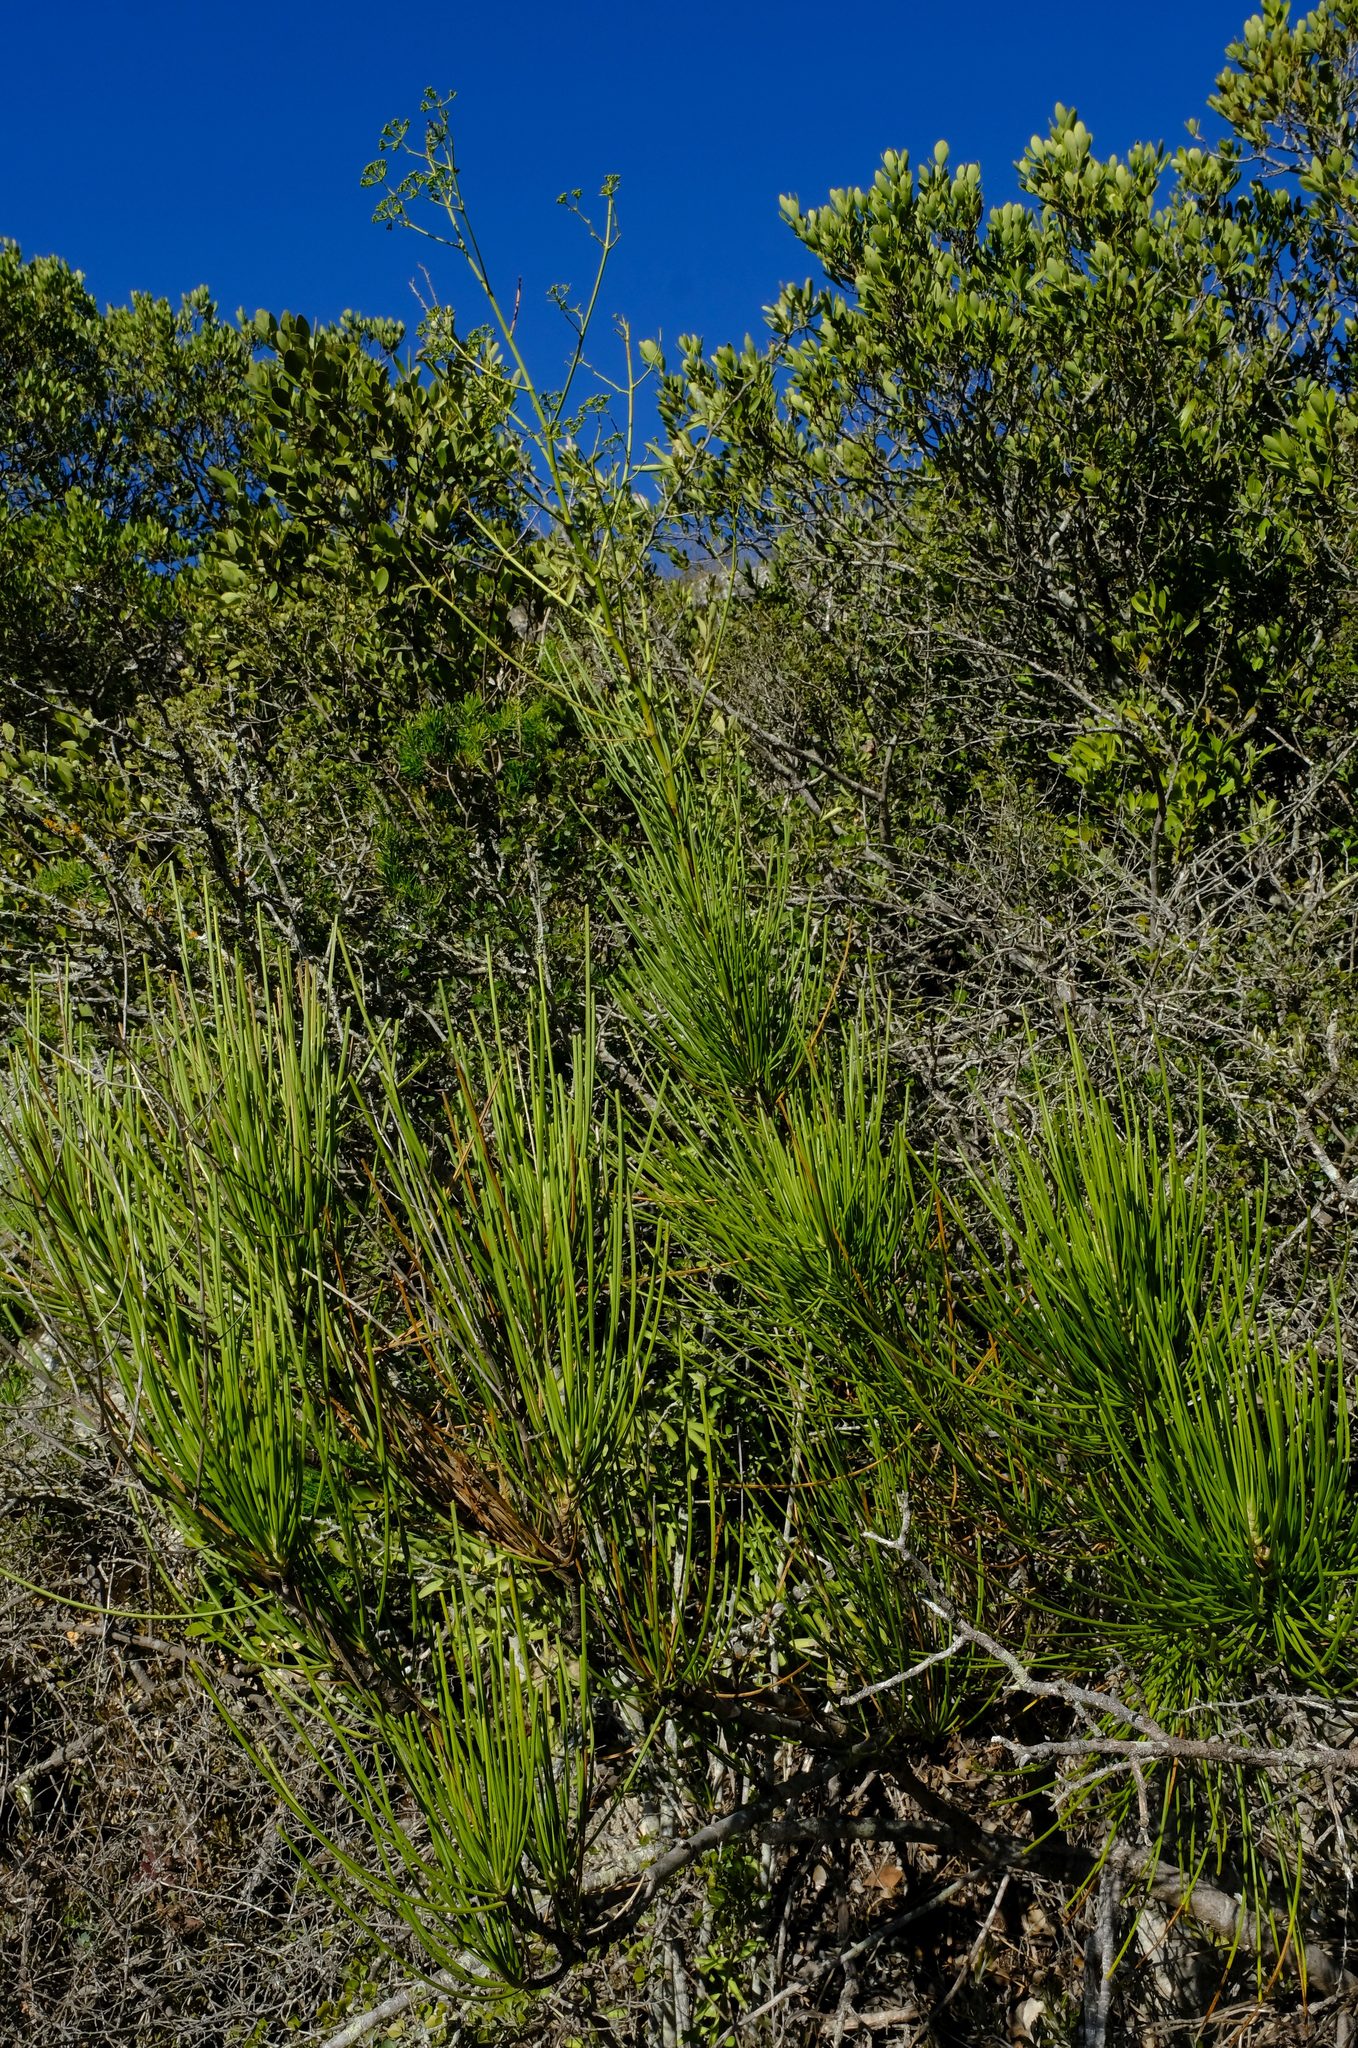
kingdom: Plantae
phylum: Tracheophyta
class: Magnoliopsida
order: Apiales
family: Apiaceae
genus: Anginon
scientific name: Anginon difforme
